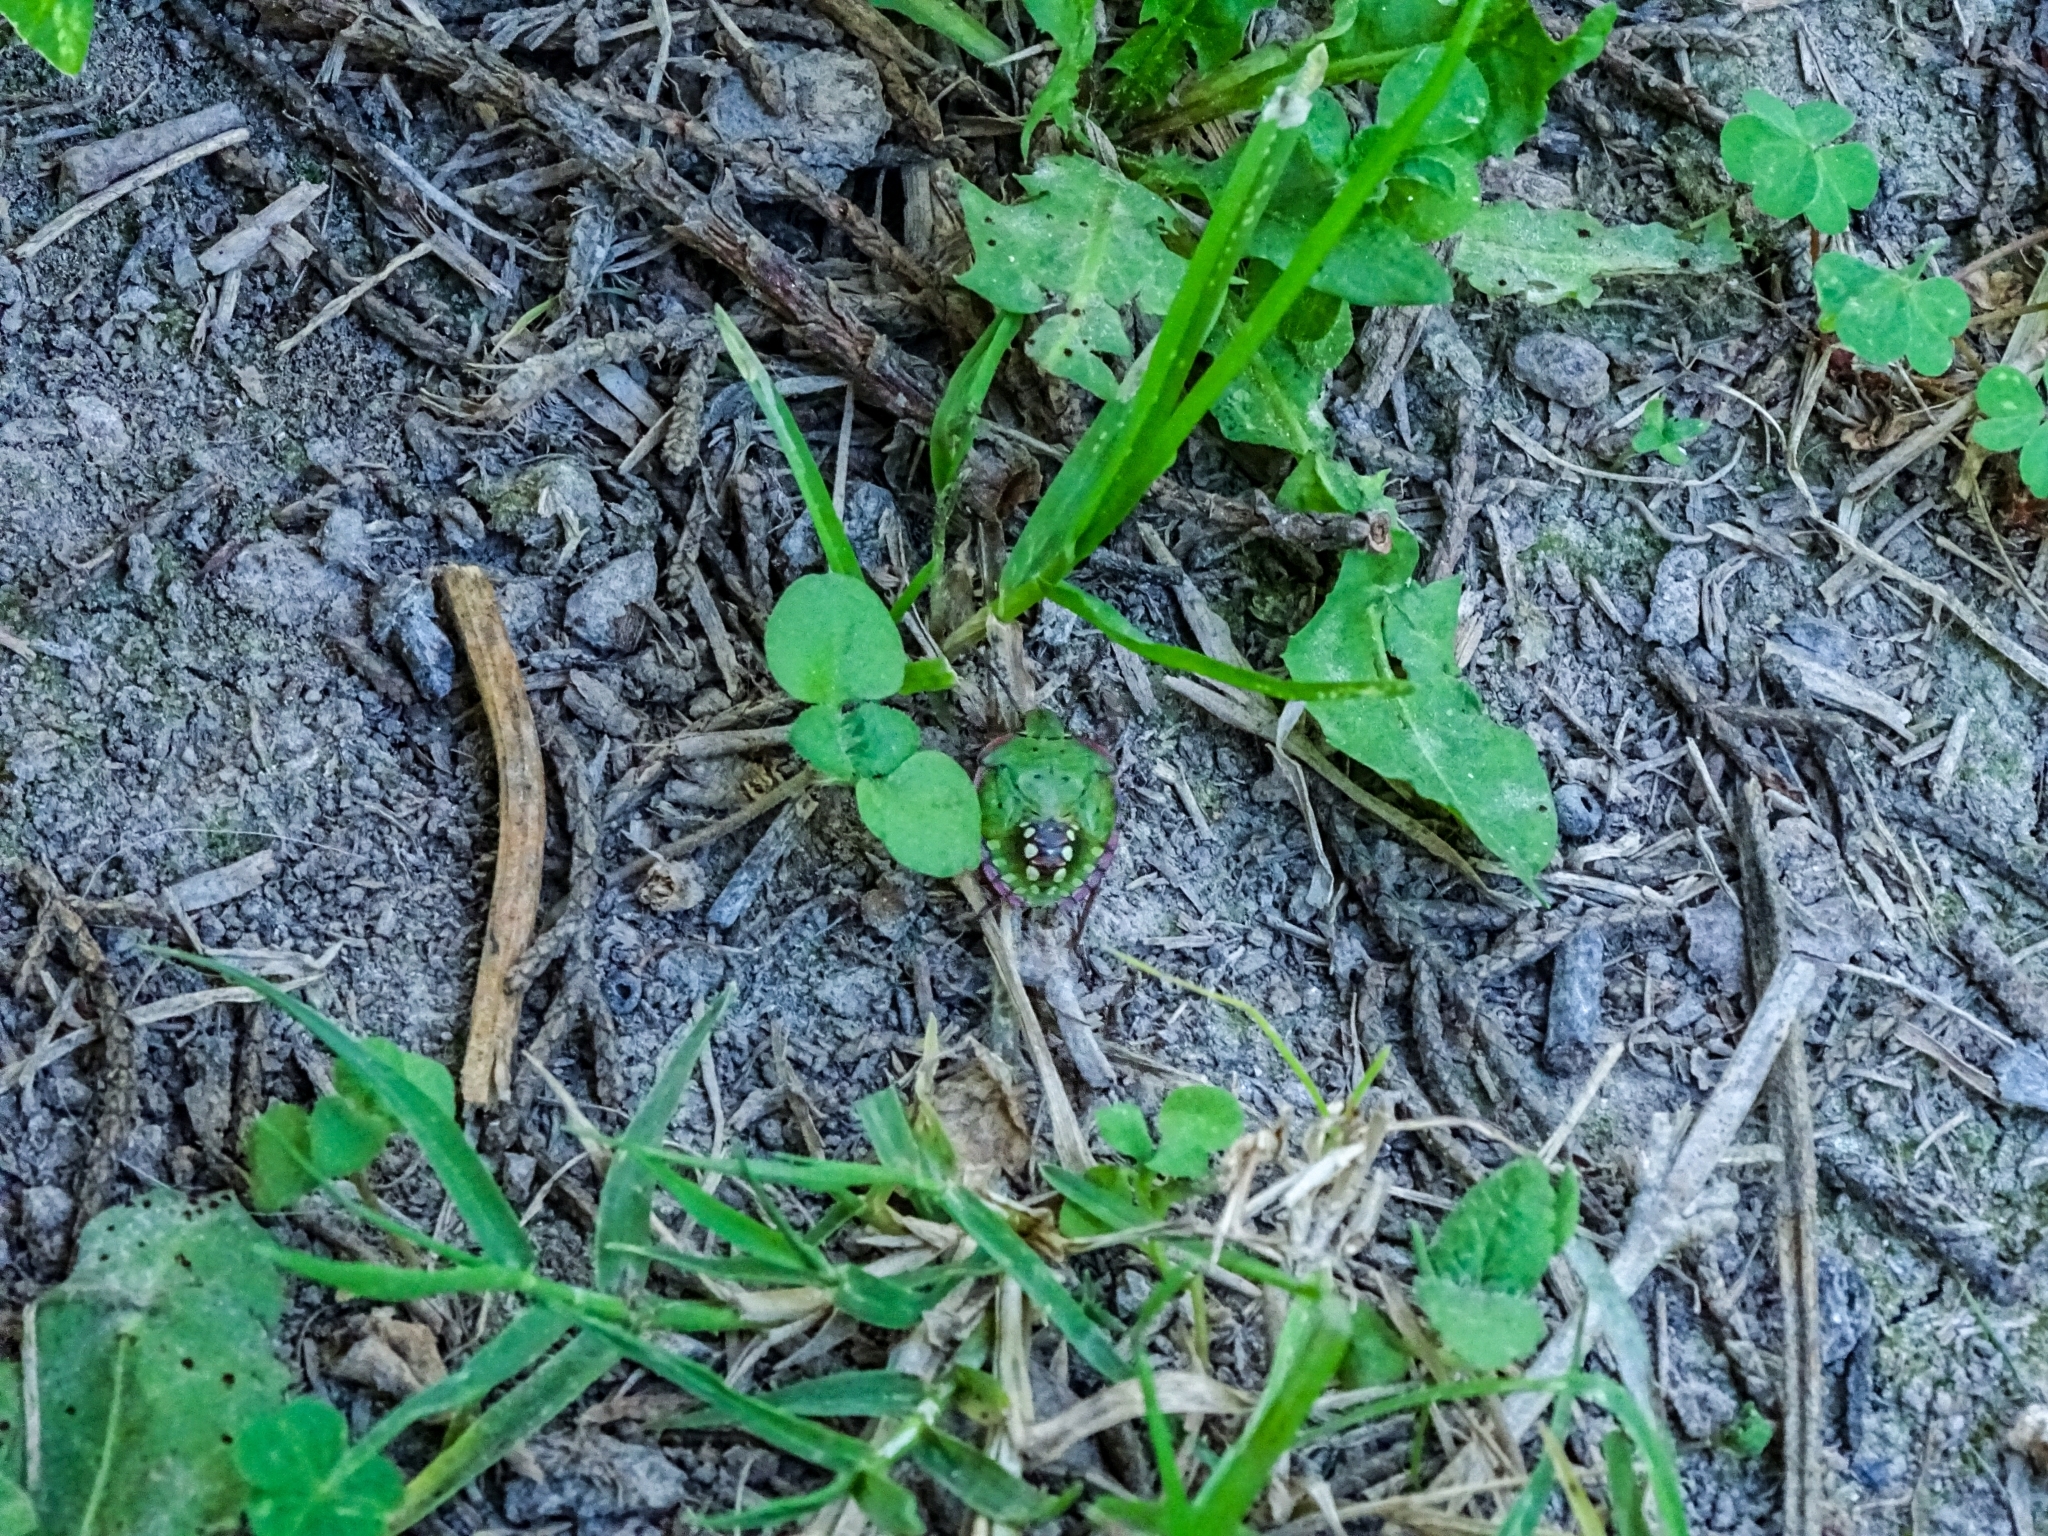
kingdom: Animalia
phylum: Arthropoda
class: Insecta
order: Hemiptera
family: Pentatomidae
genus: Nezara
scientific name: Nezara viridula
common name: Southern green stink bug
